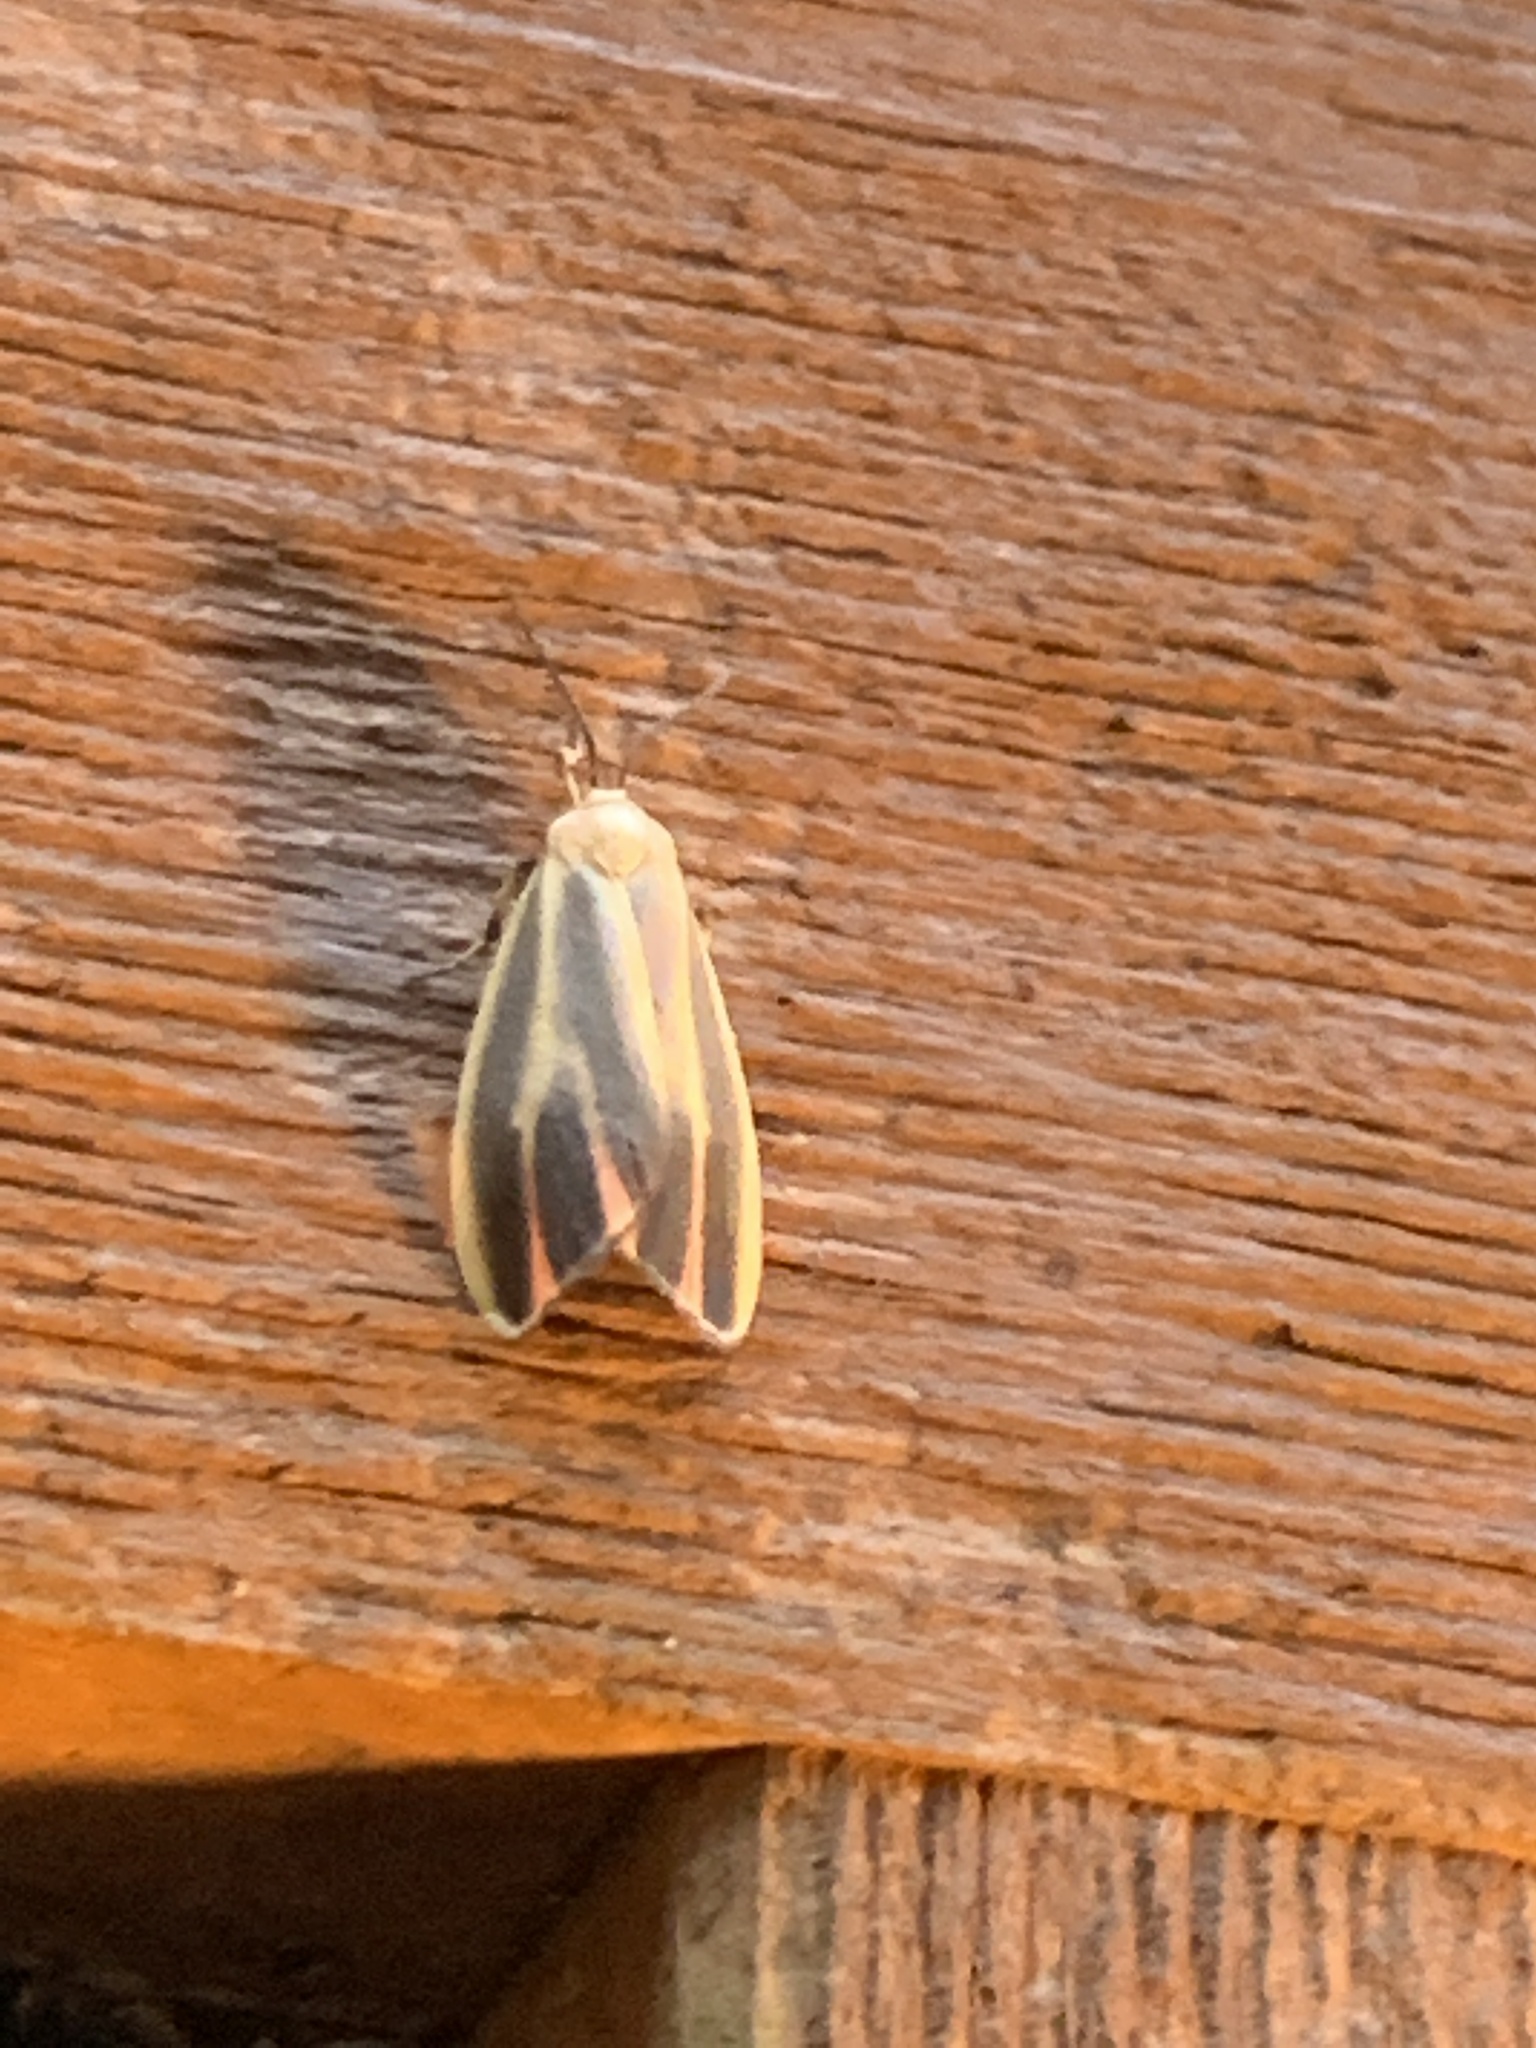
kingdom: Animalia
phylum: Arthropoda
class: Insecta
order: Lepidoptera
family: Erebidae
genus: Hypoprepia
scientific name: Hypoprepia fucosa
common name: Painted lichen moth
